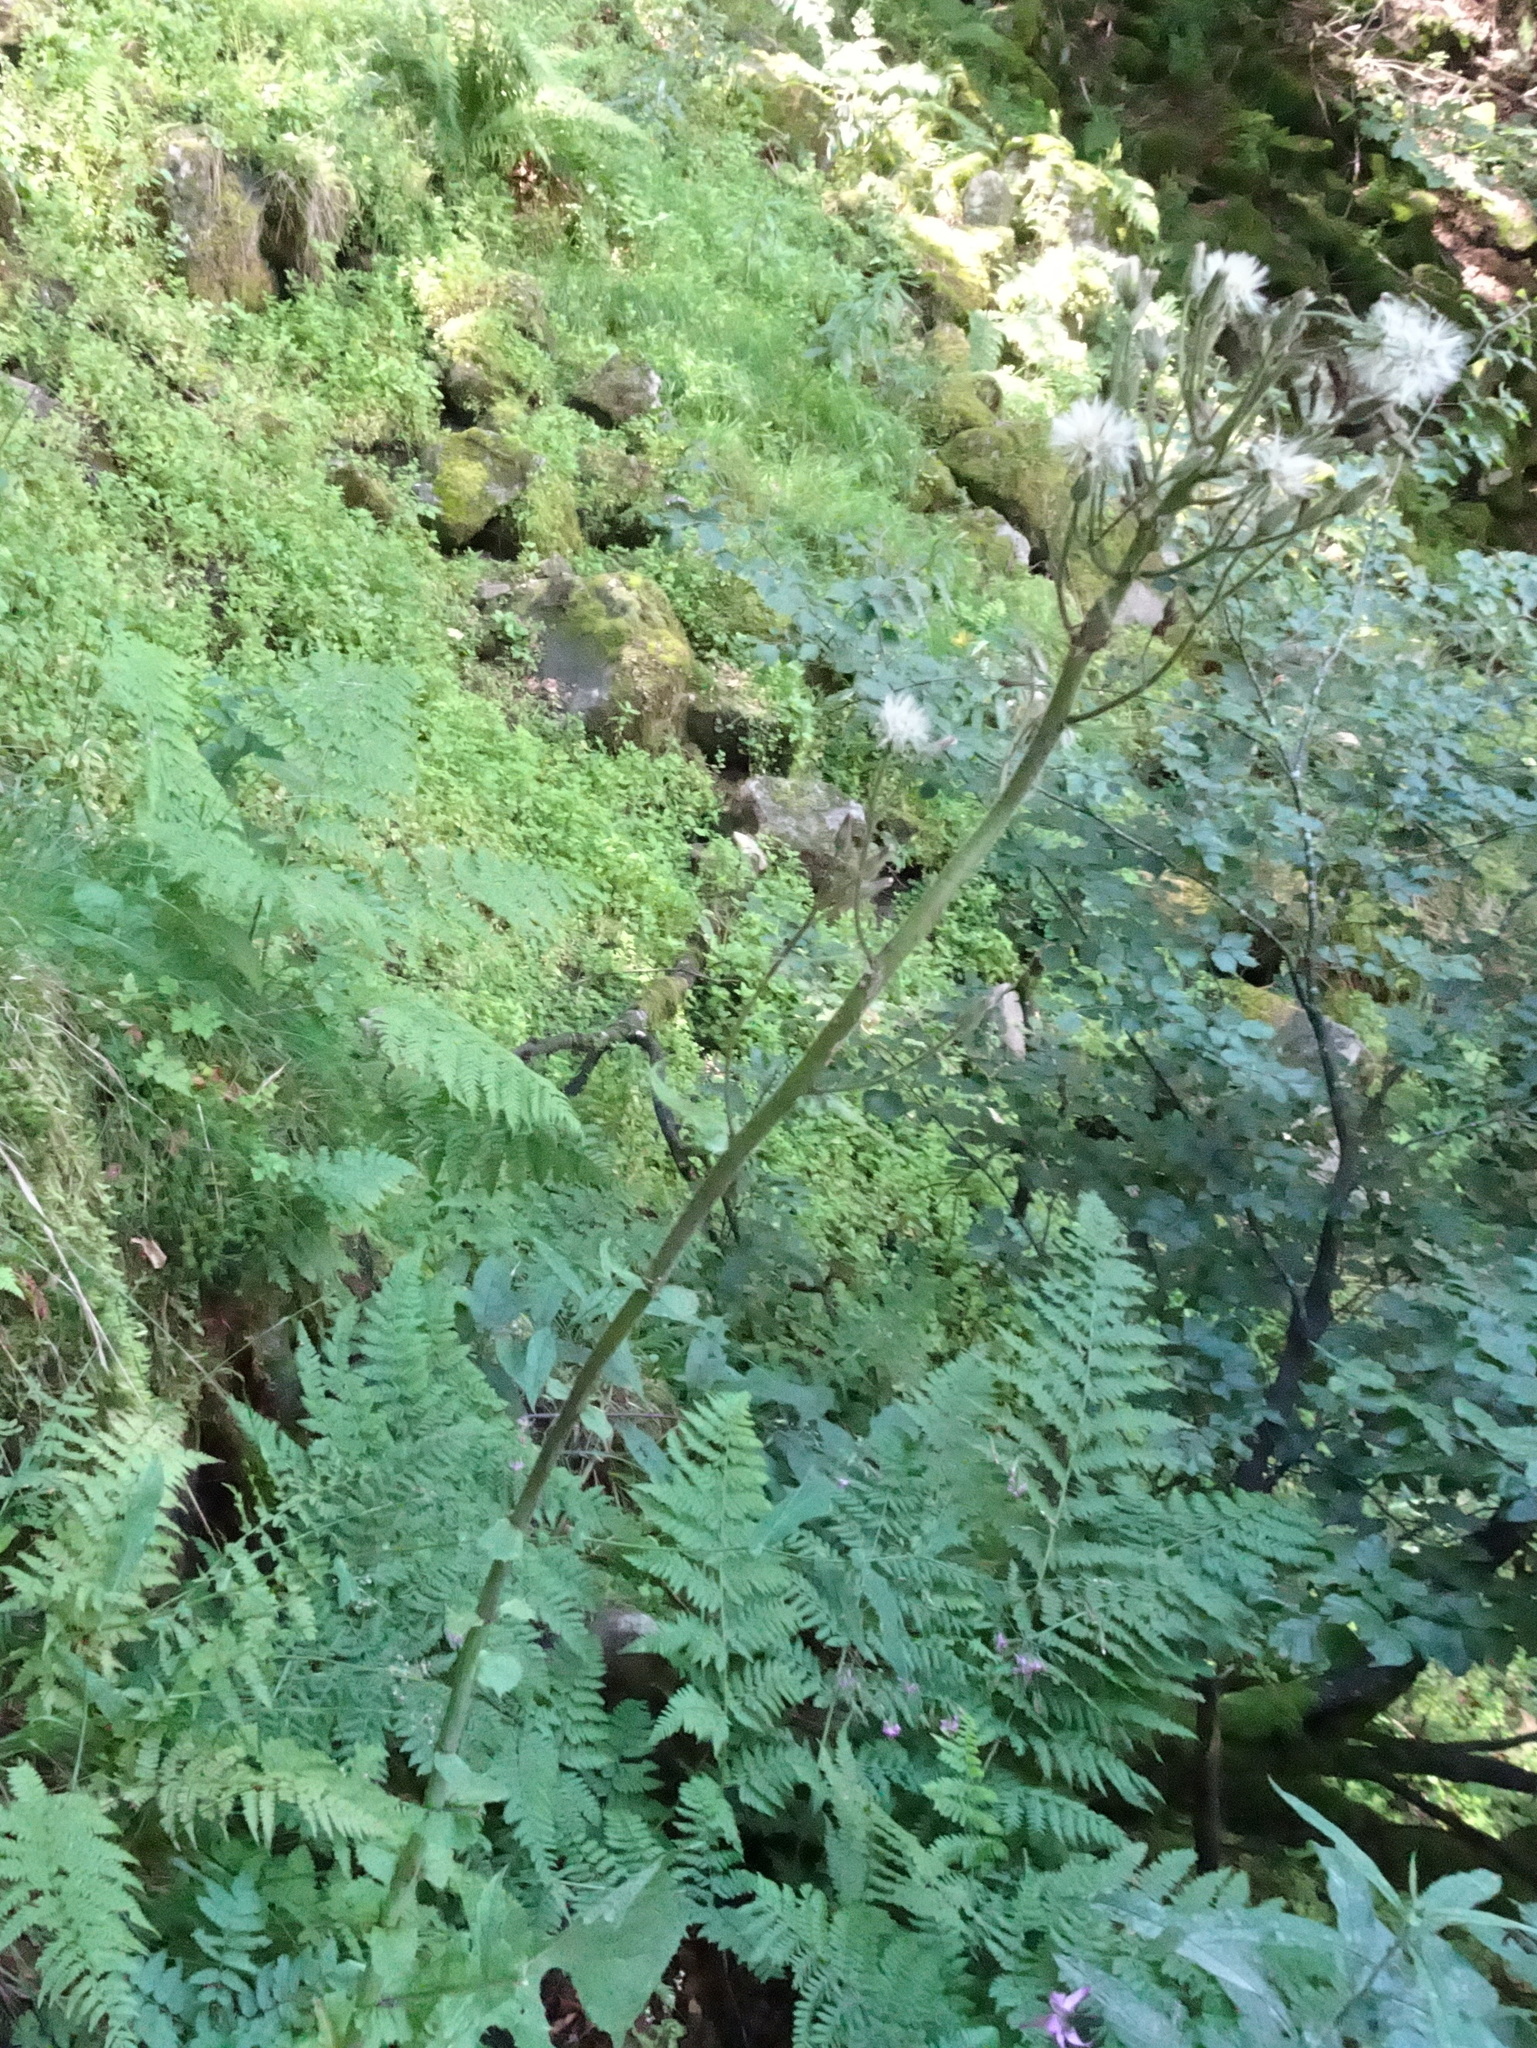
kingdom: Plantae
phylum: Tracheophyta
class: Magnoliopsida
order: Asterales
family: Asteraceae
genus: Cicerbita
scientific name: Cicerbita alpina
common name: Alpine blue-sow-thistle
